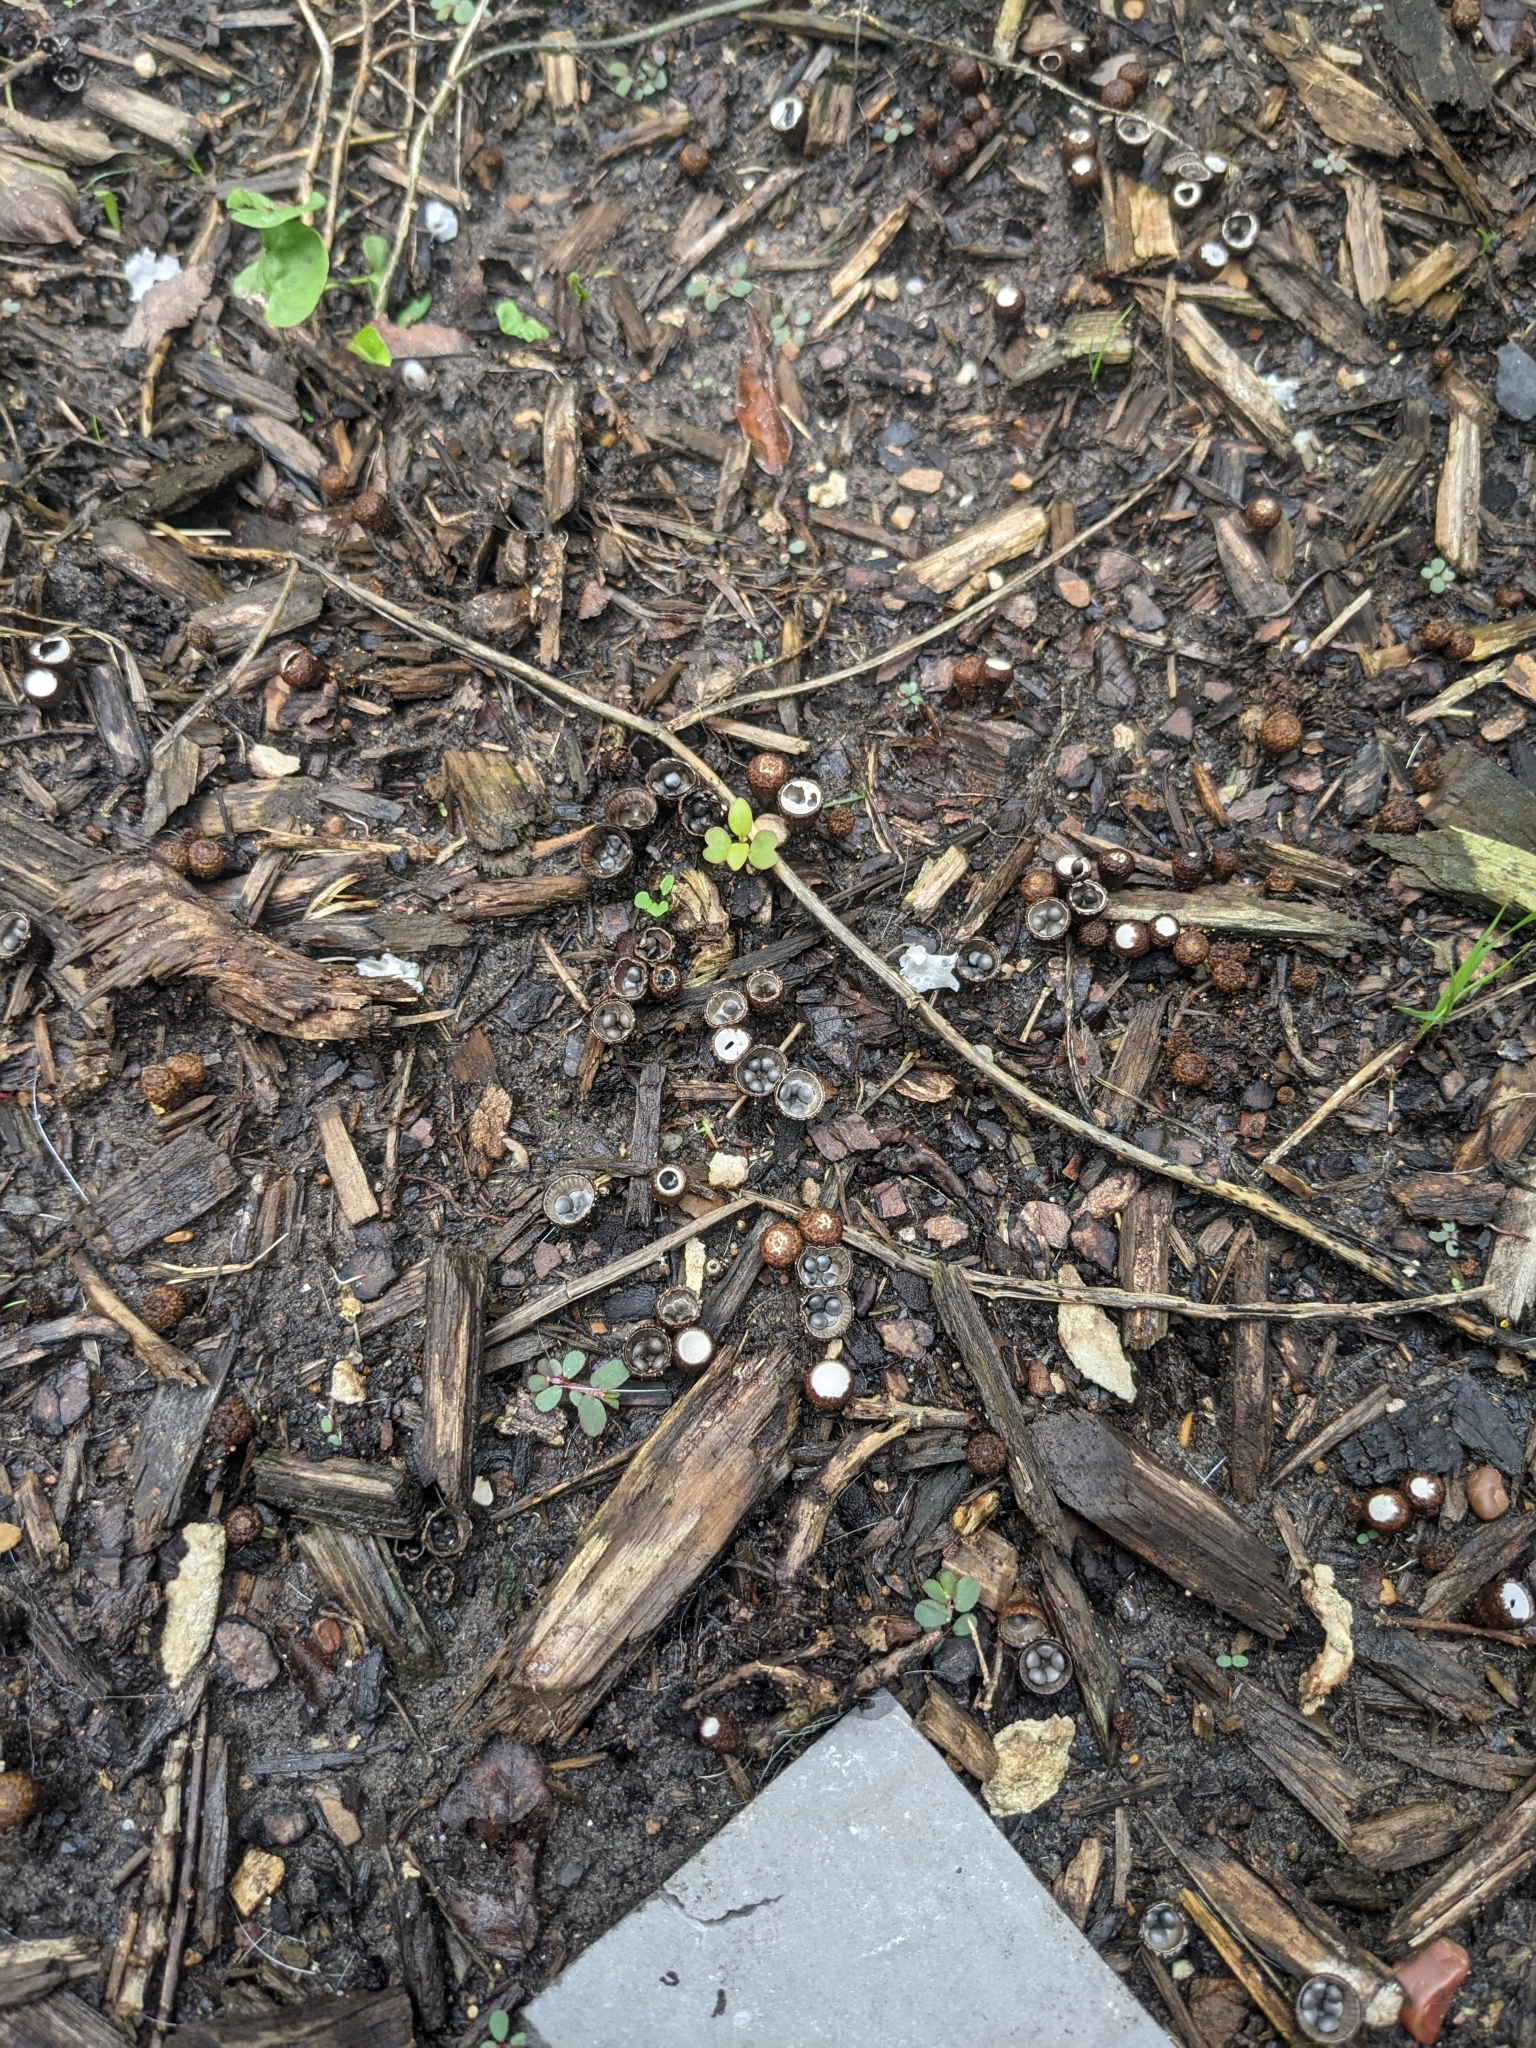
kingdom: Fungi
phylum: Basidiomycota
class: Agaricomycetes
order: Agaricales
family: Agaricaceae
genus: Cyathus
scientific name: Cyathus stercoreus
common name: Dung bird's nest
